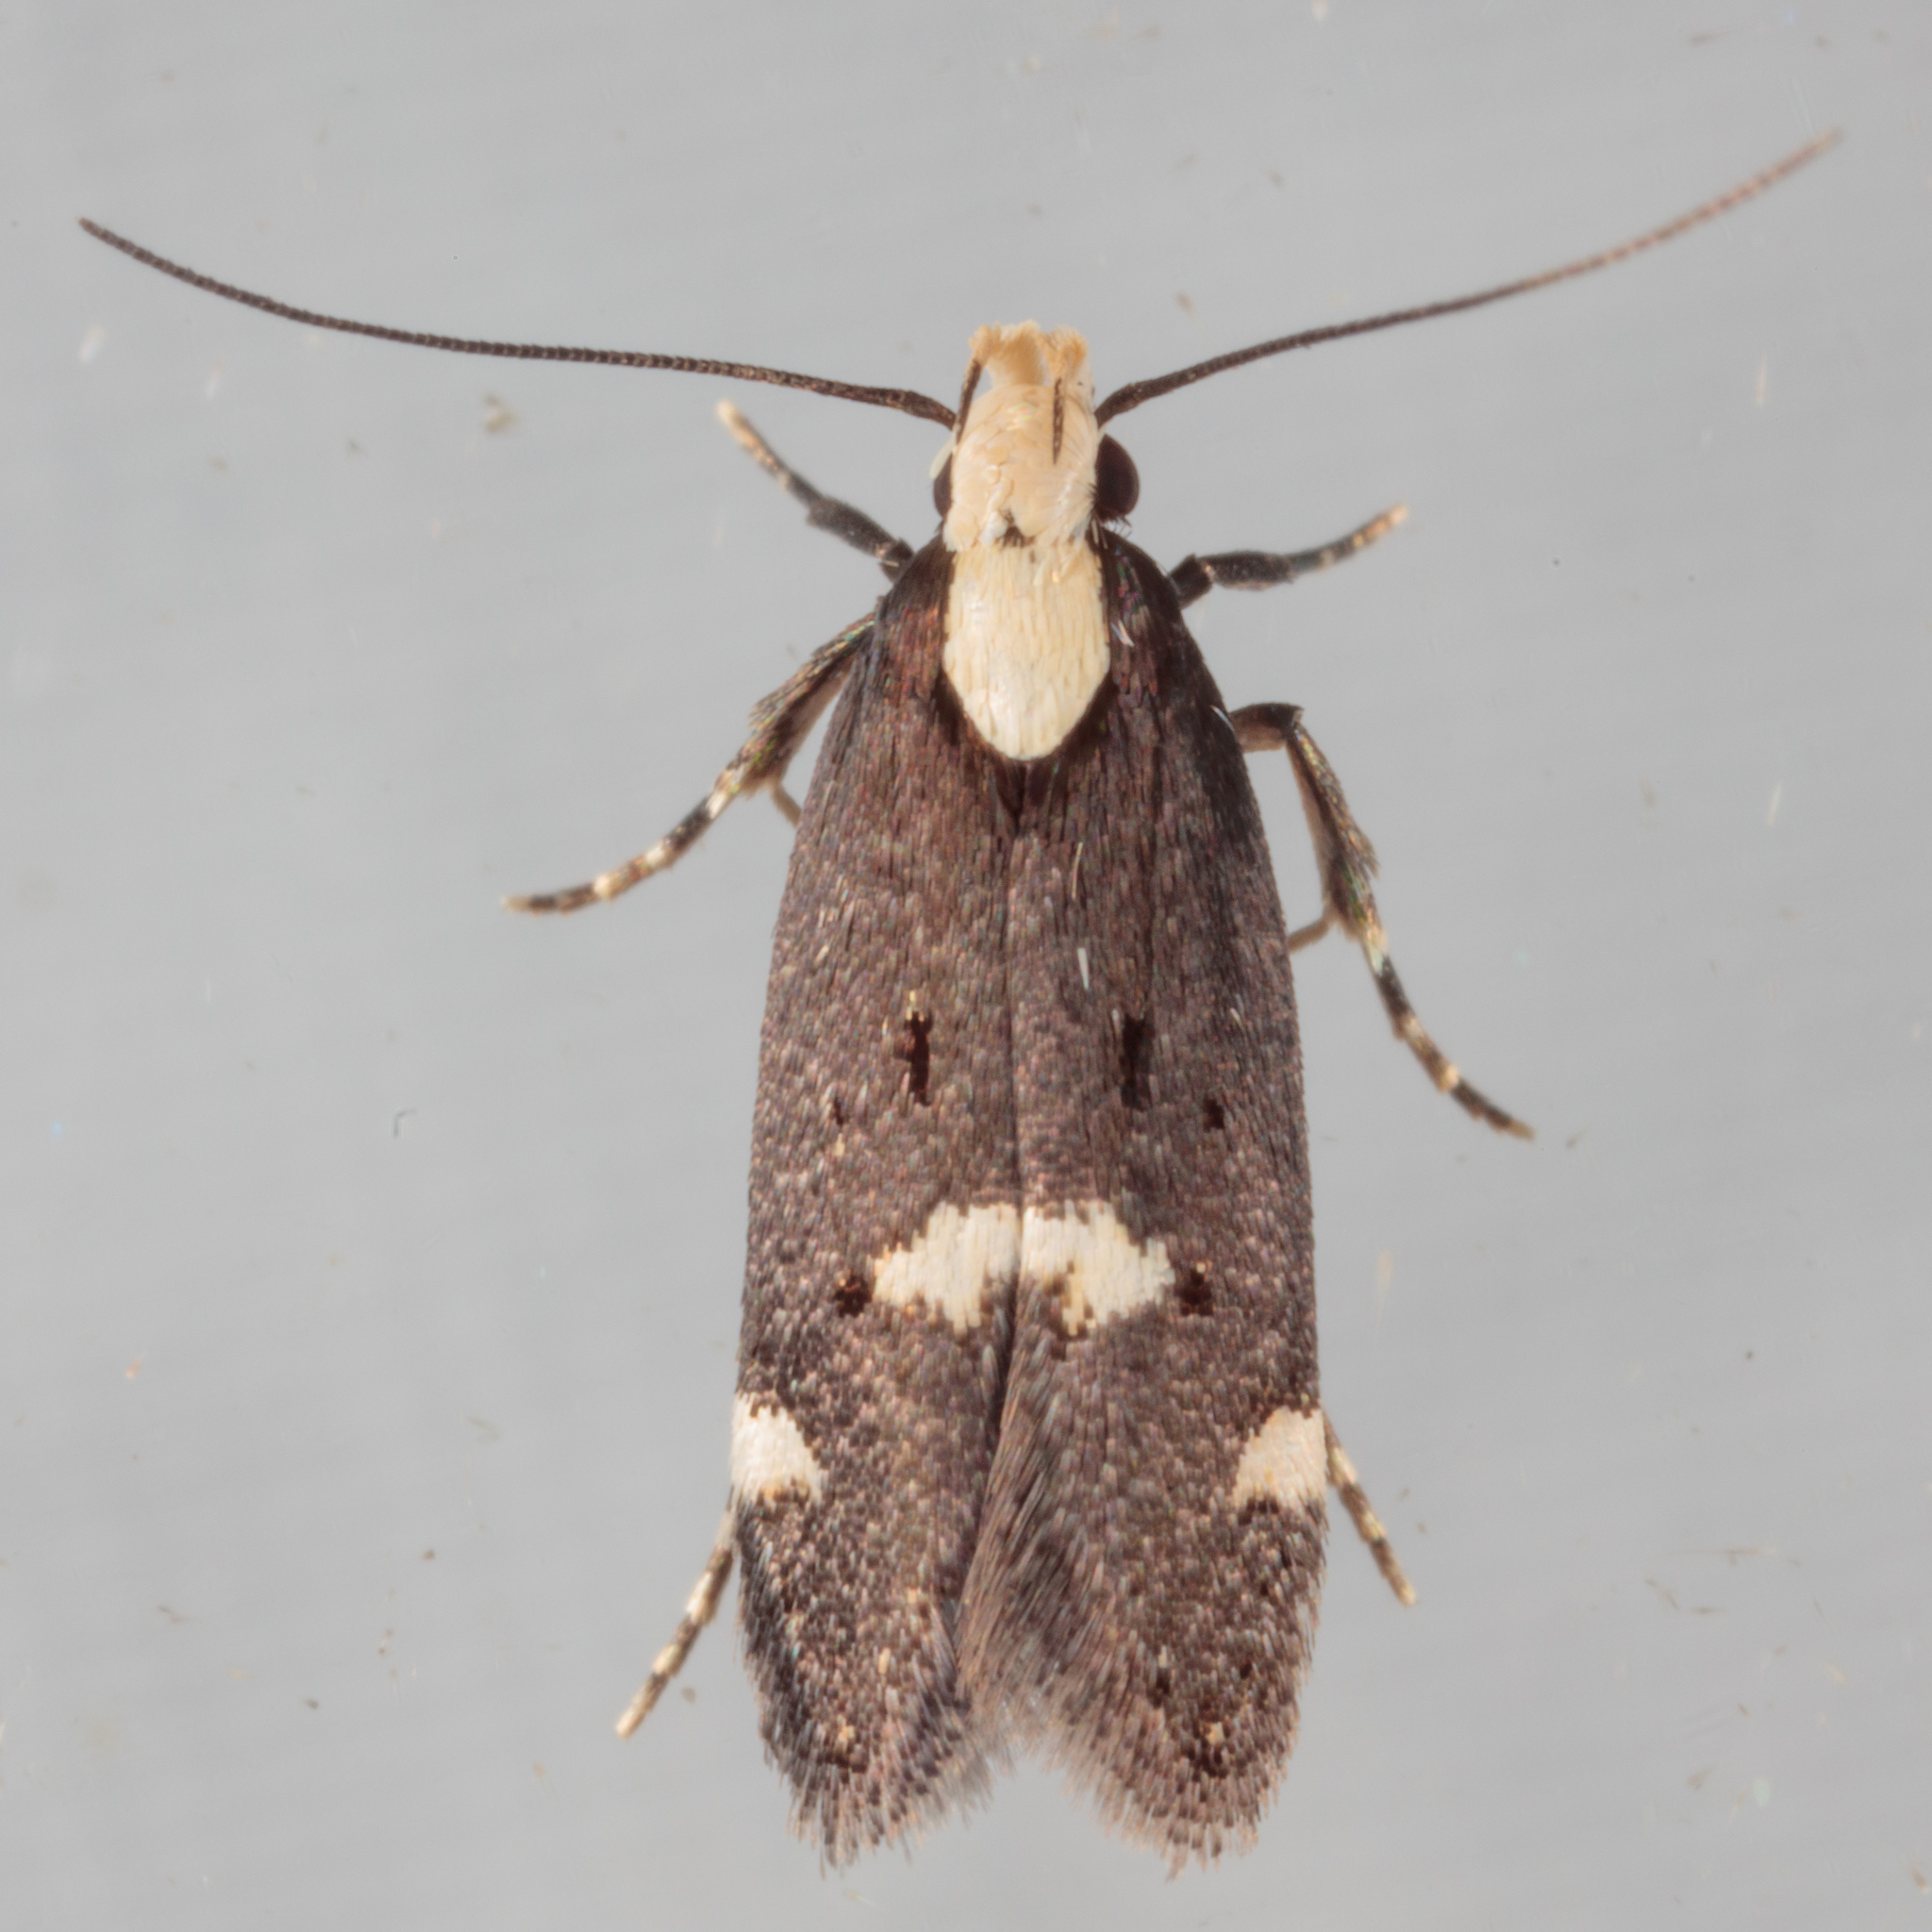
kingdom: Animalia
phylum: Arthropoda
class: Insecta
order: Lepidoptera
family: Gelechiidae
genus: Chionodes
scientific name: Chionodes mariona
